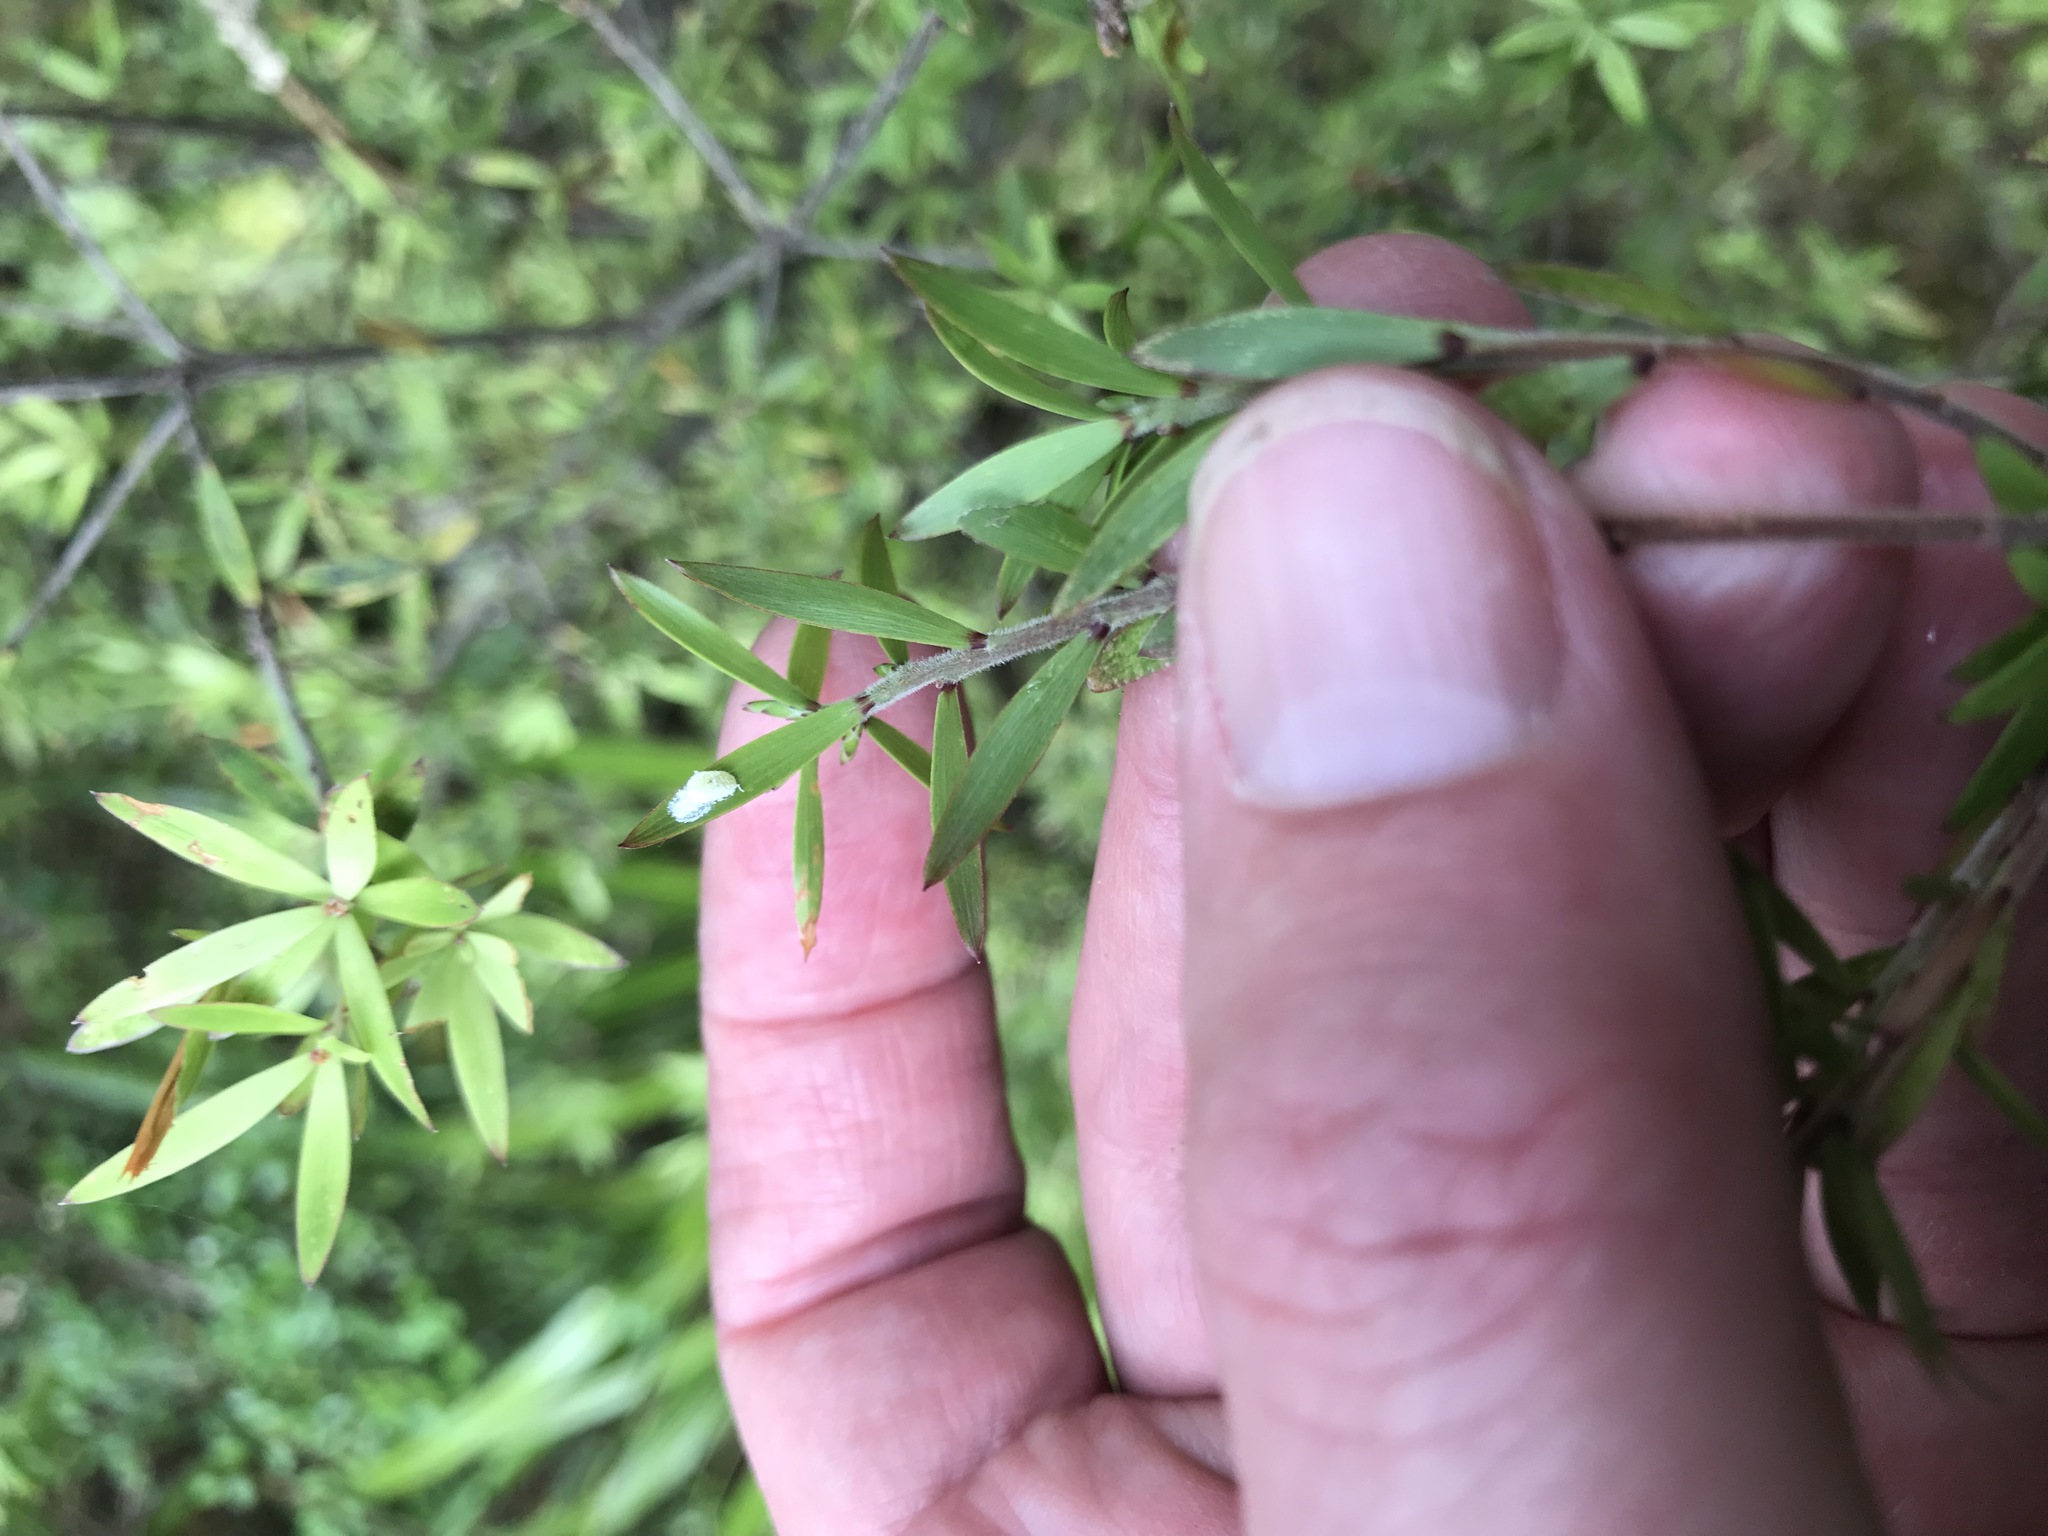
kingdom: Plantae
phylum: Tracheophyta
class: Magnoliopsida
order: Ericales
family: Ericaceae
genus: Leucopogon
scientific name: Leucopogon fasciculatus
